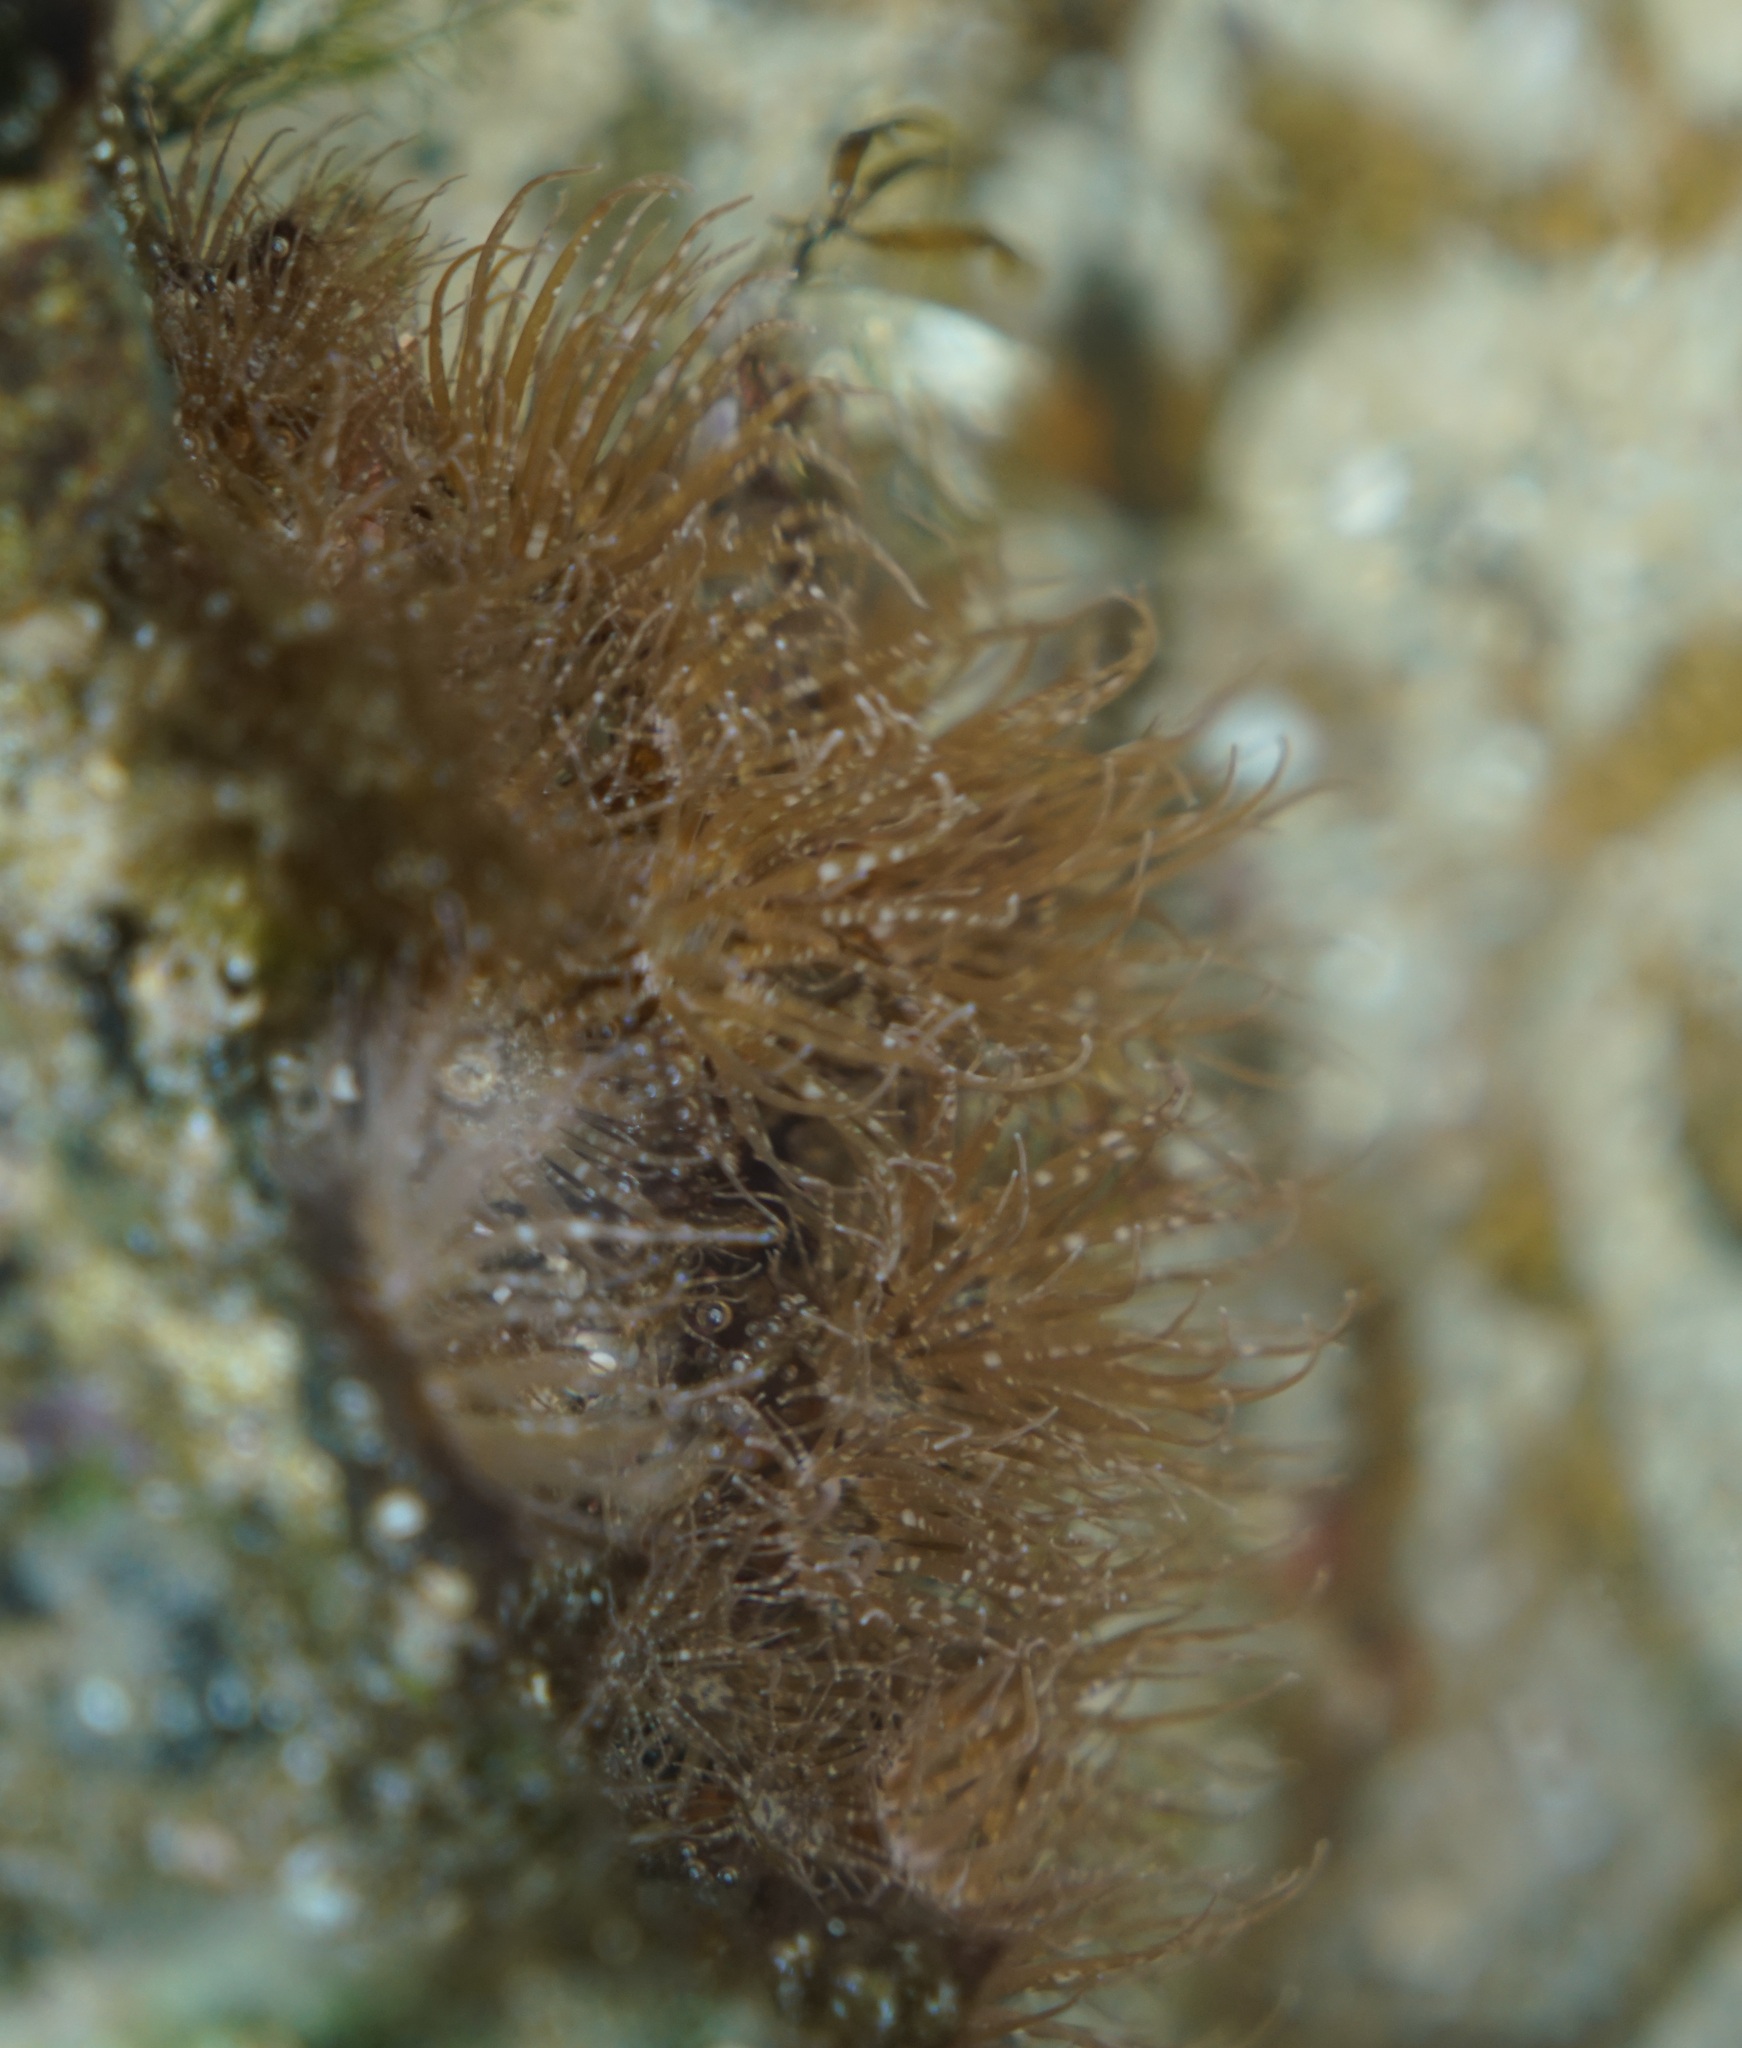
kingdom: Animalia
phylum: Cnidaria
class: Anthozoa
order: Actiniaria
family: Aiptasiidae
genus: Exaiptasia
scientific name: Exaiptasia diaphana
